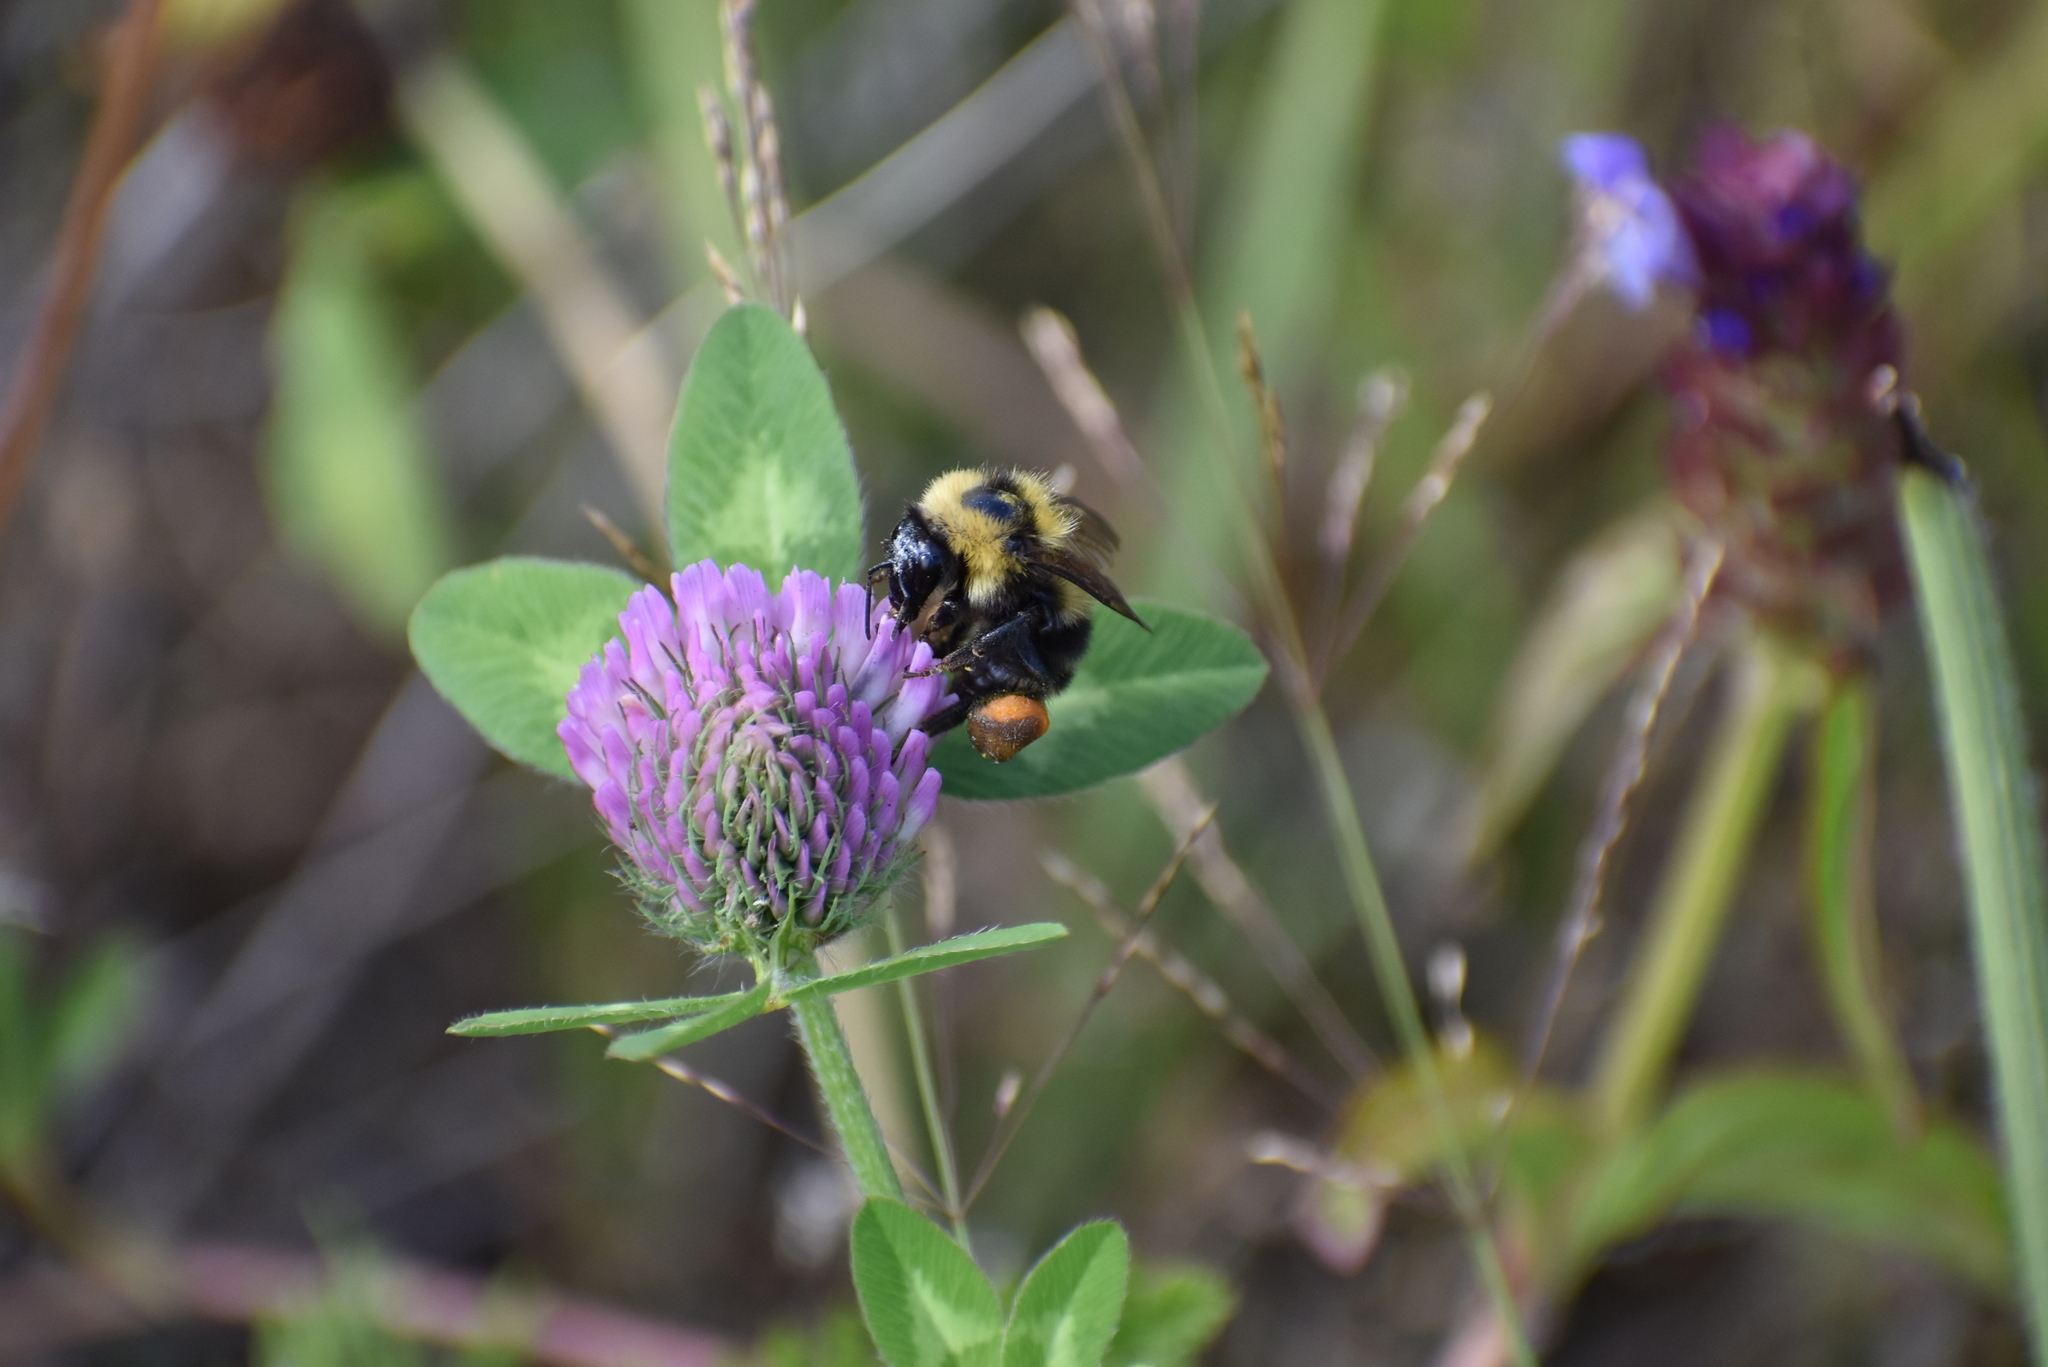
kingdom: Animalia
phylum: Arthropoda
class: Insecta
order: Hymenoptera
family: Apidae
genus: Bombus
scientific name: Bombus californicus
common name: California bumble bee
